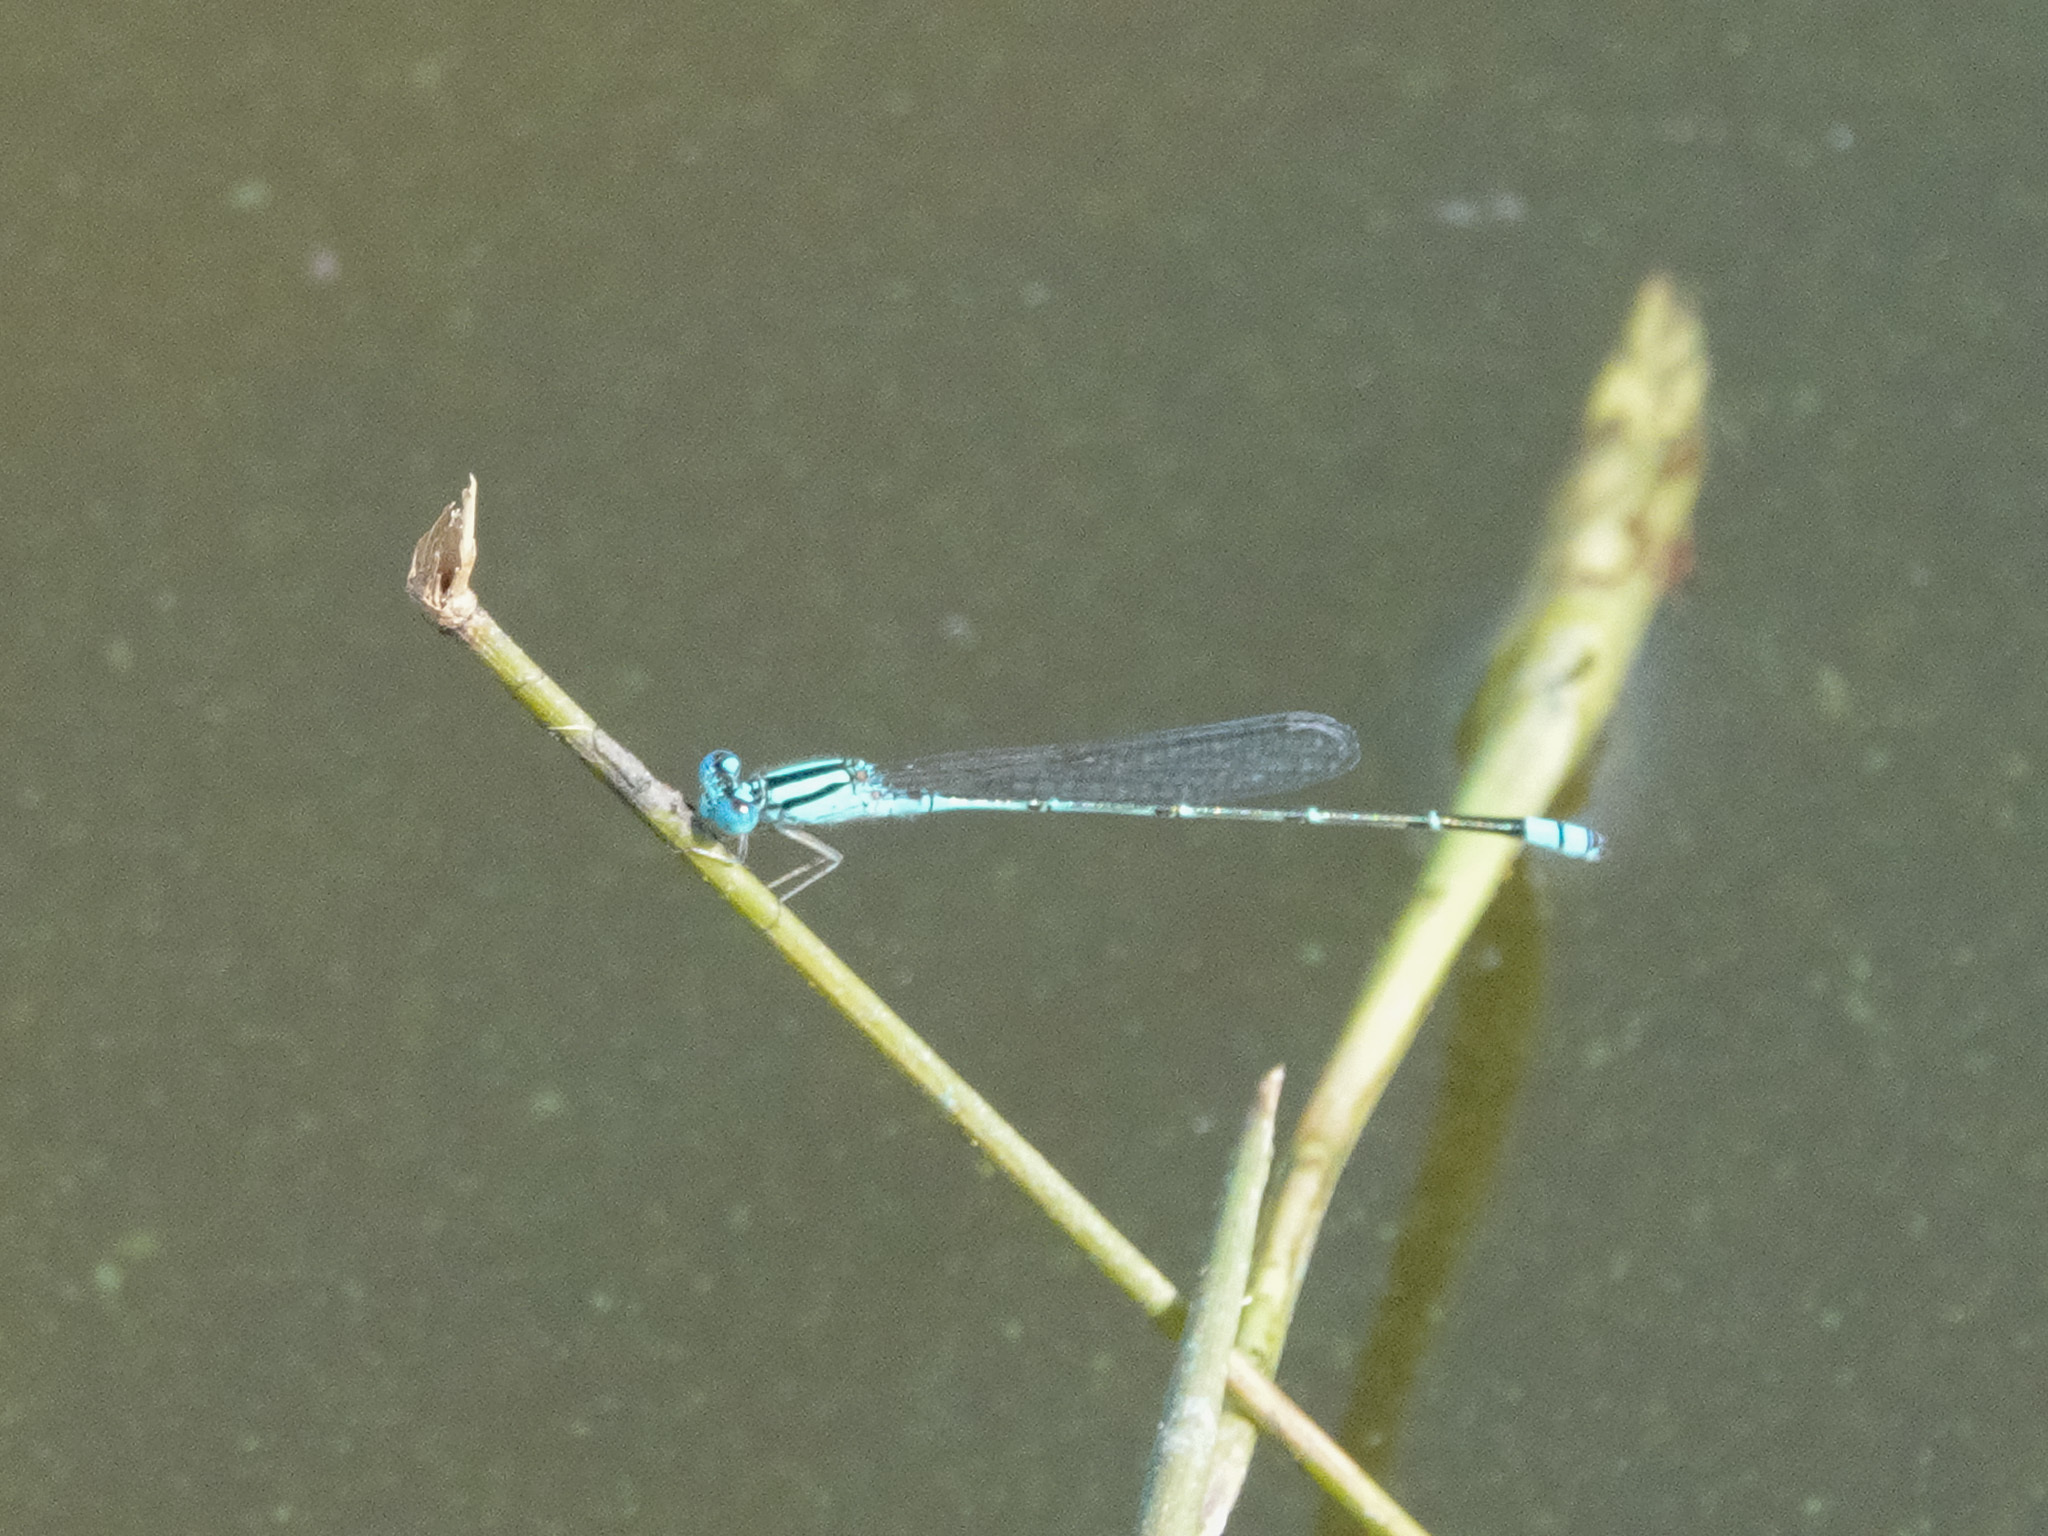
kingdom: Animalia
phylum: Arthropoda
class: Insecta
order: Odonata
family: Coenagrionidae
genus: Pseudagrion
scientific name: Pseudagrion microcephalum
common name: Blue riverdamsel
